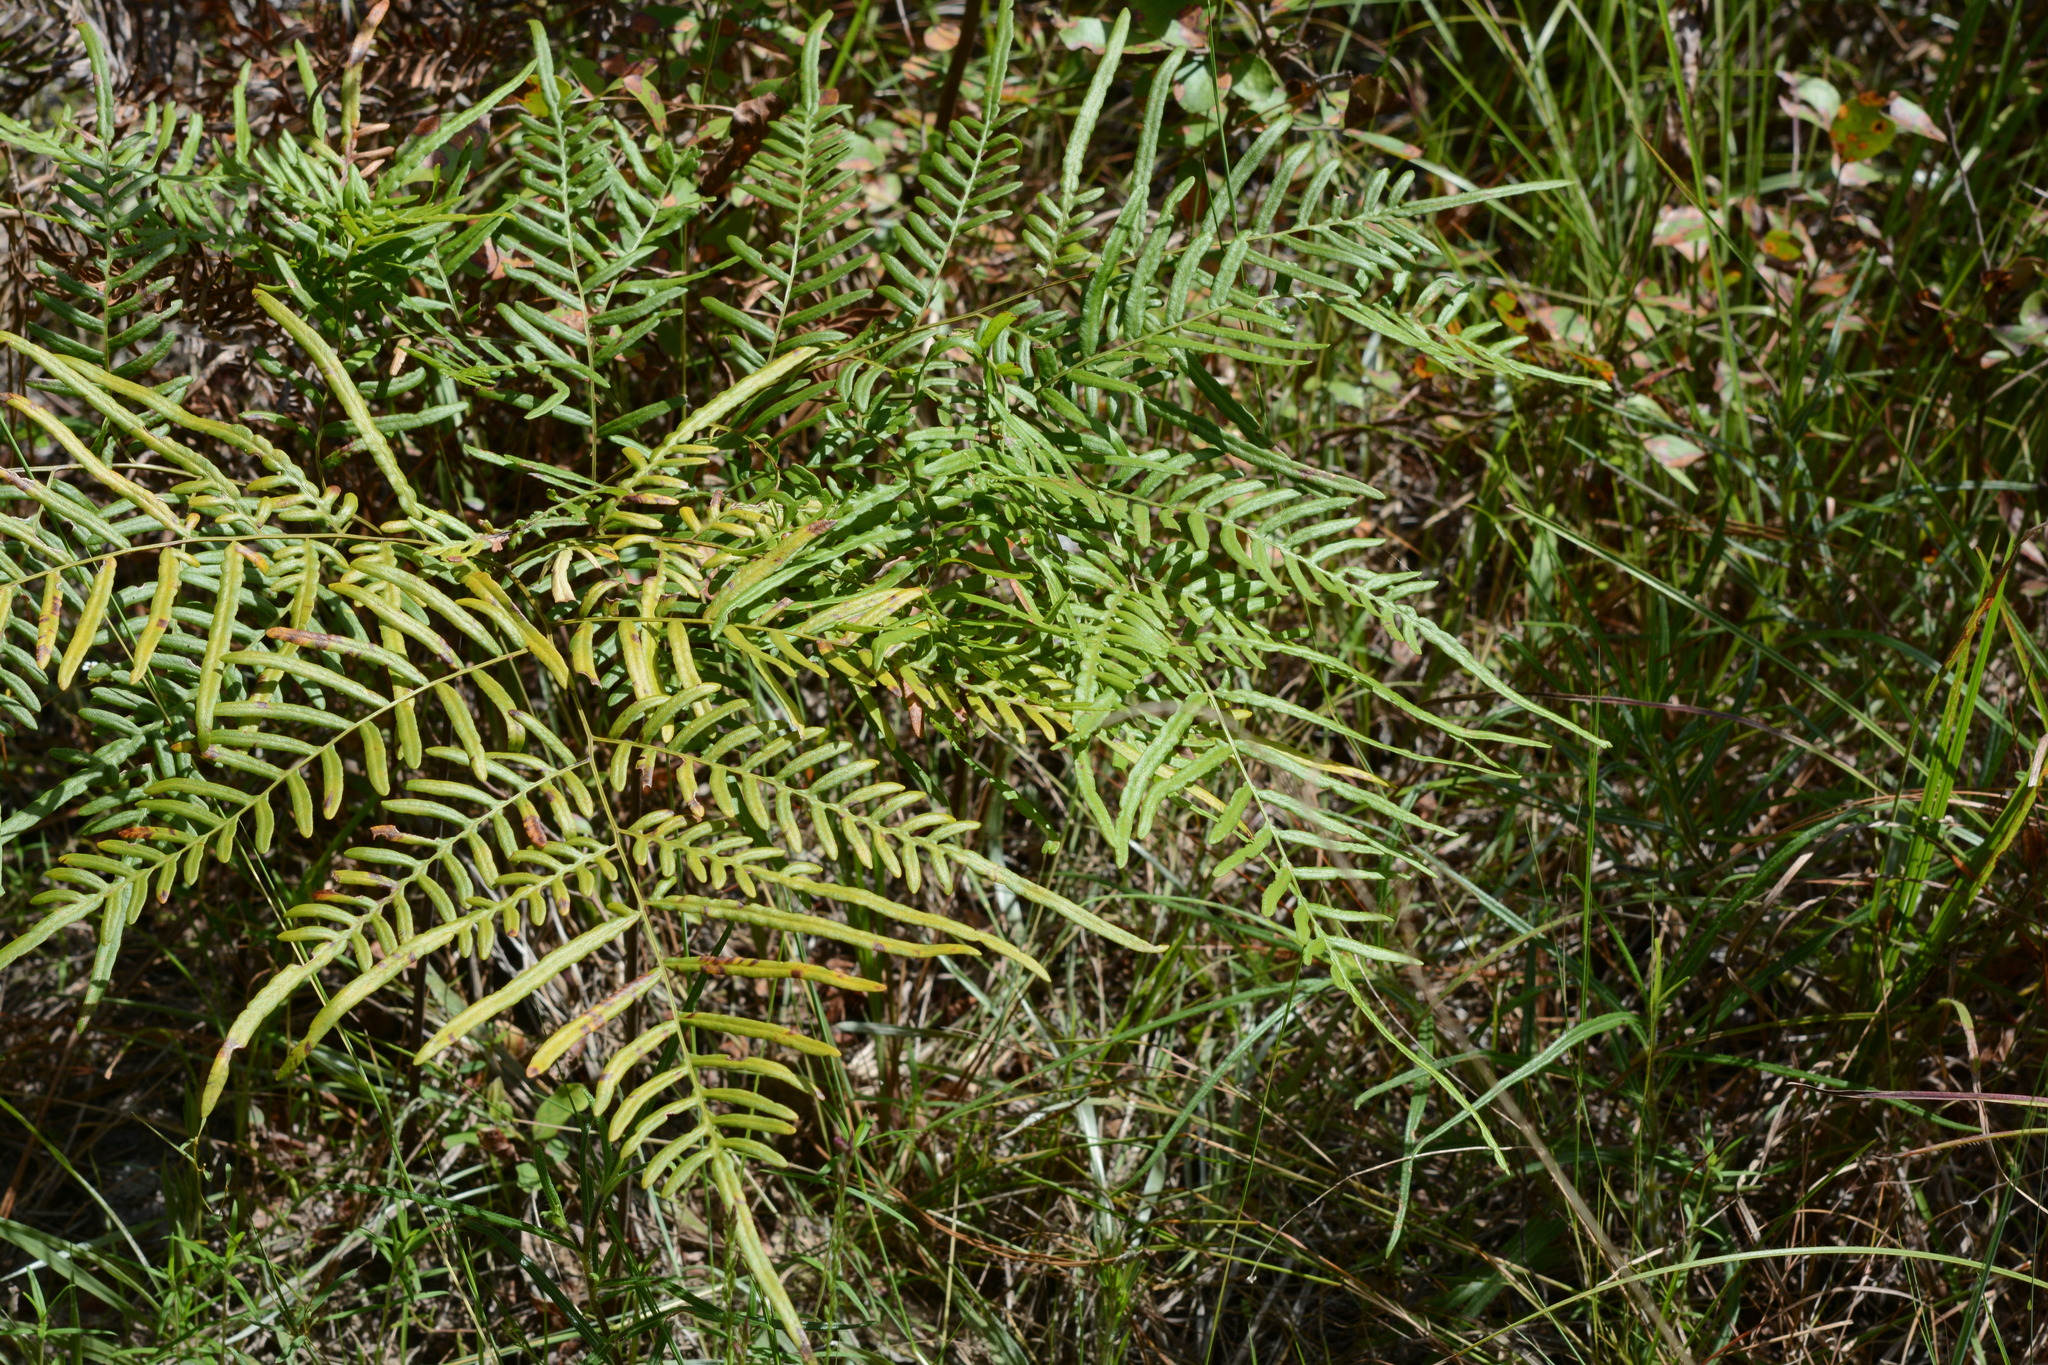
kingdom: Plantae
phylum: Tracheophyta
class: Polypodiopsida
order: Polypodiales
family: Dennstaedtiaceae
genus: Pteridium
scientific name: Pteridium aquilinum
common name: Bracken
